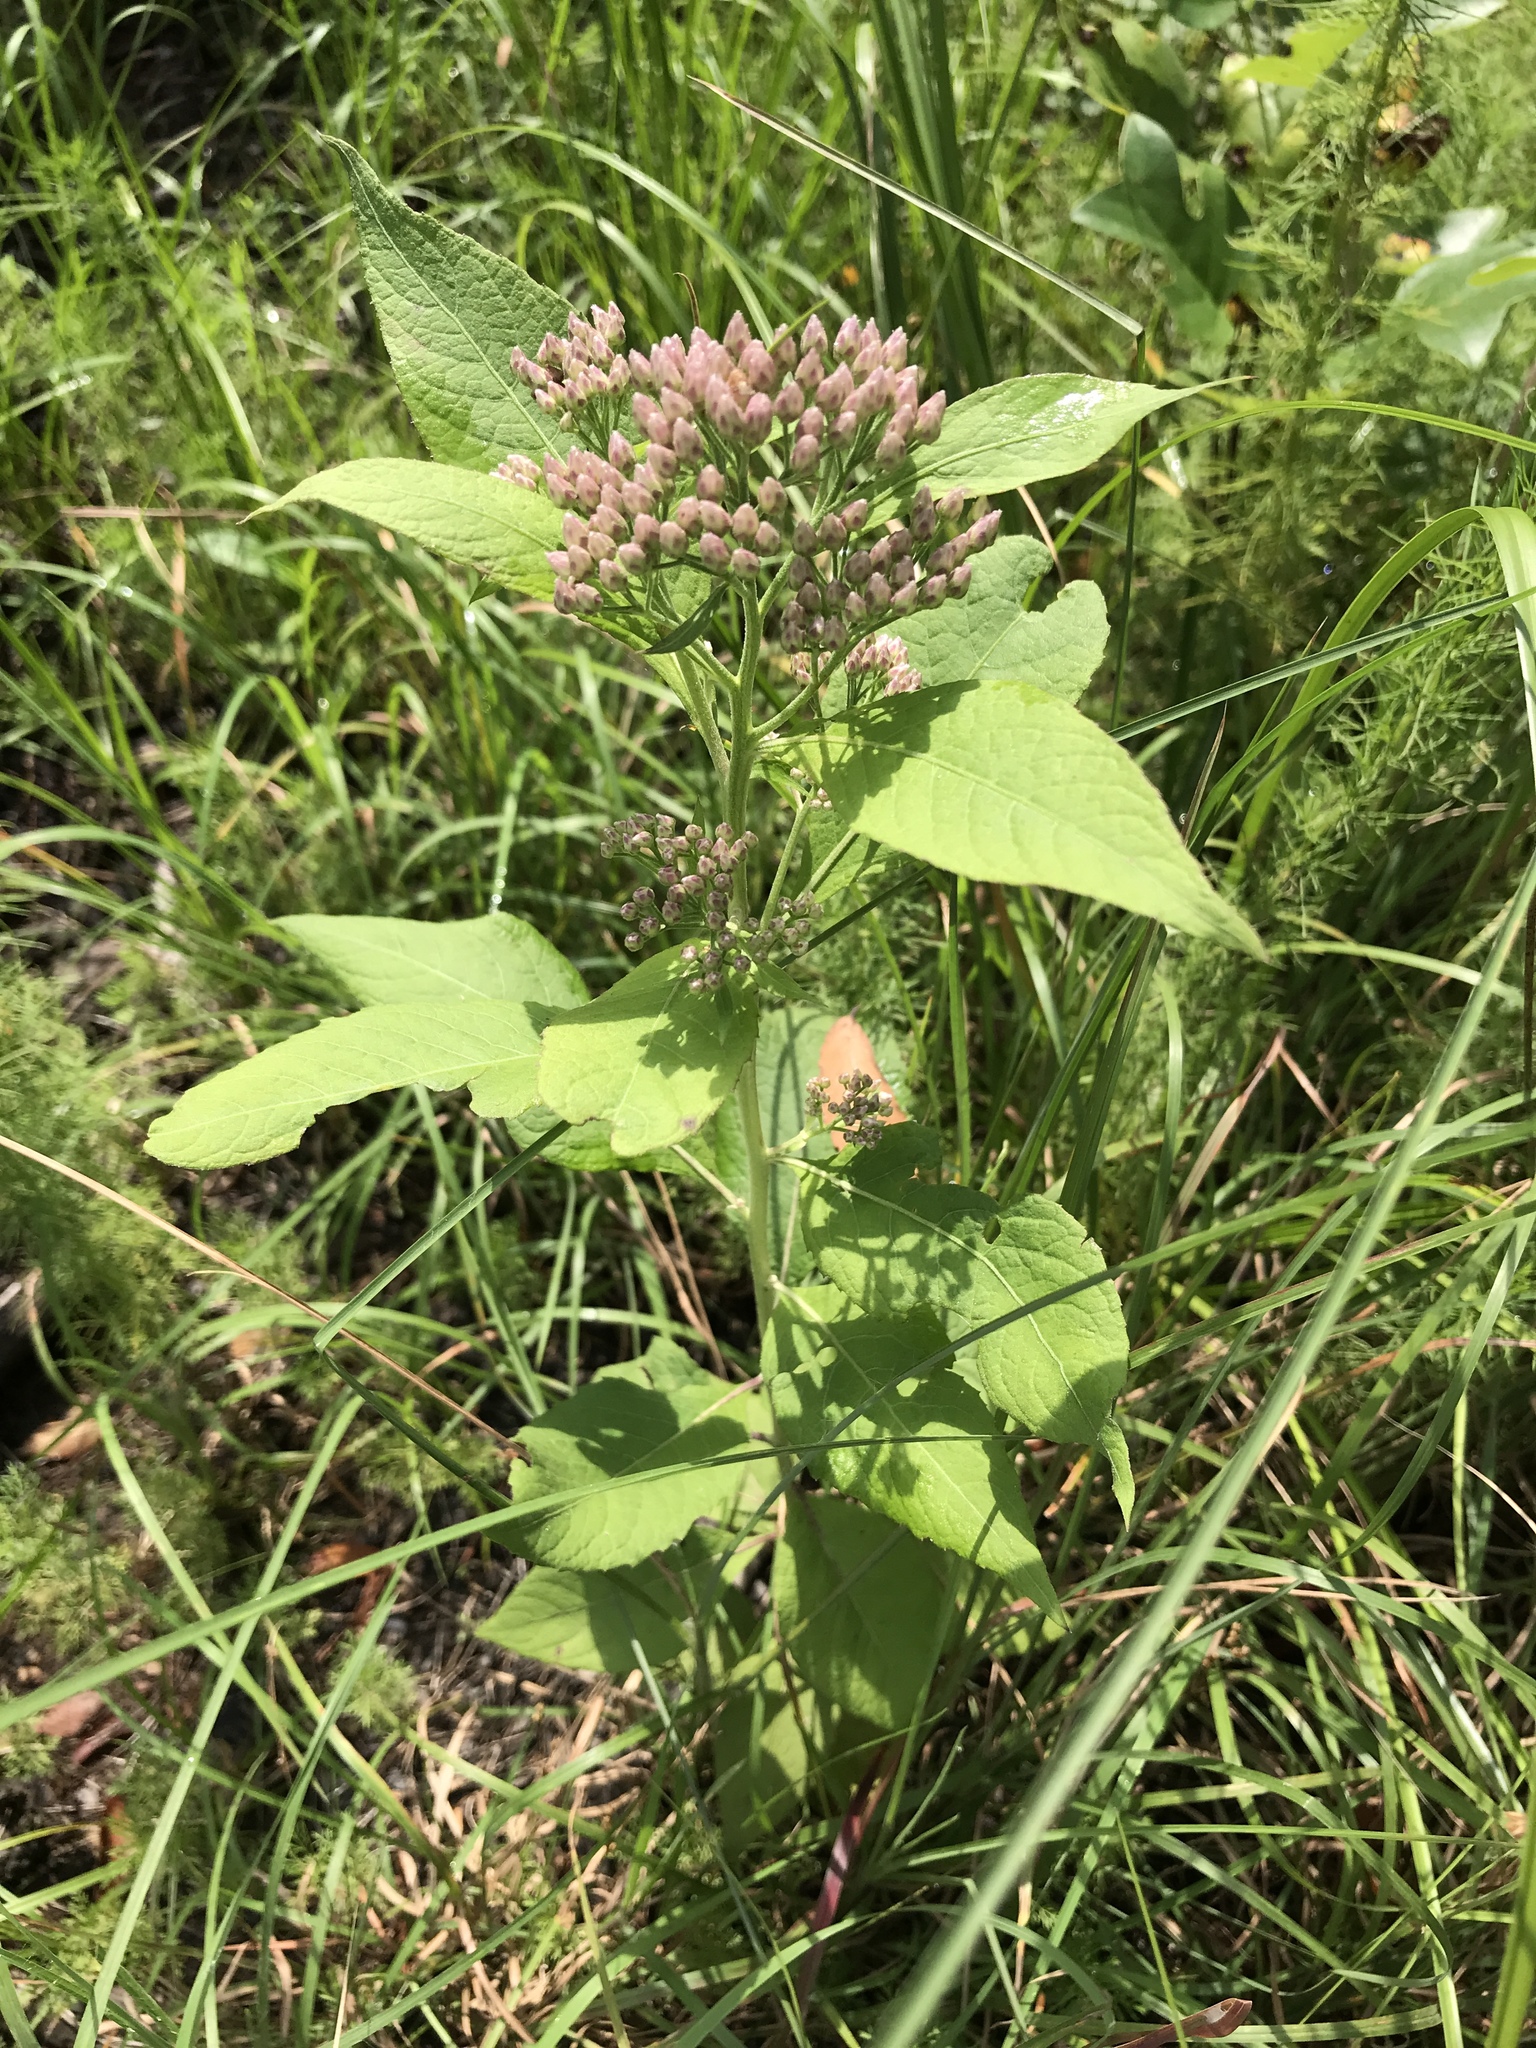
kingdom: Plantae
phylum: Tracheophyta
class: Magnoliopsida
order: Asterales
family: Asteraceae
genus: Pluchea
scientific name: Pluchea camphorata
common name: Camphor pluchea
